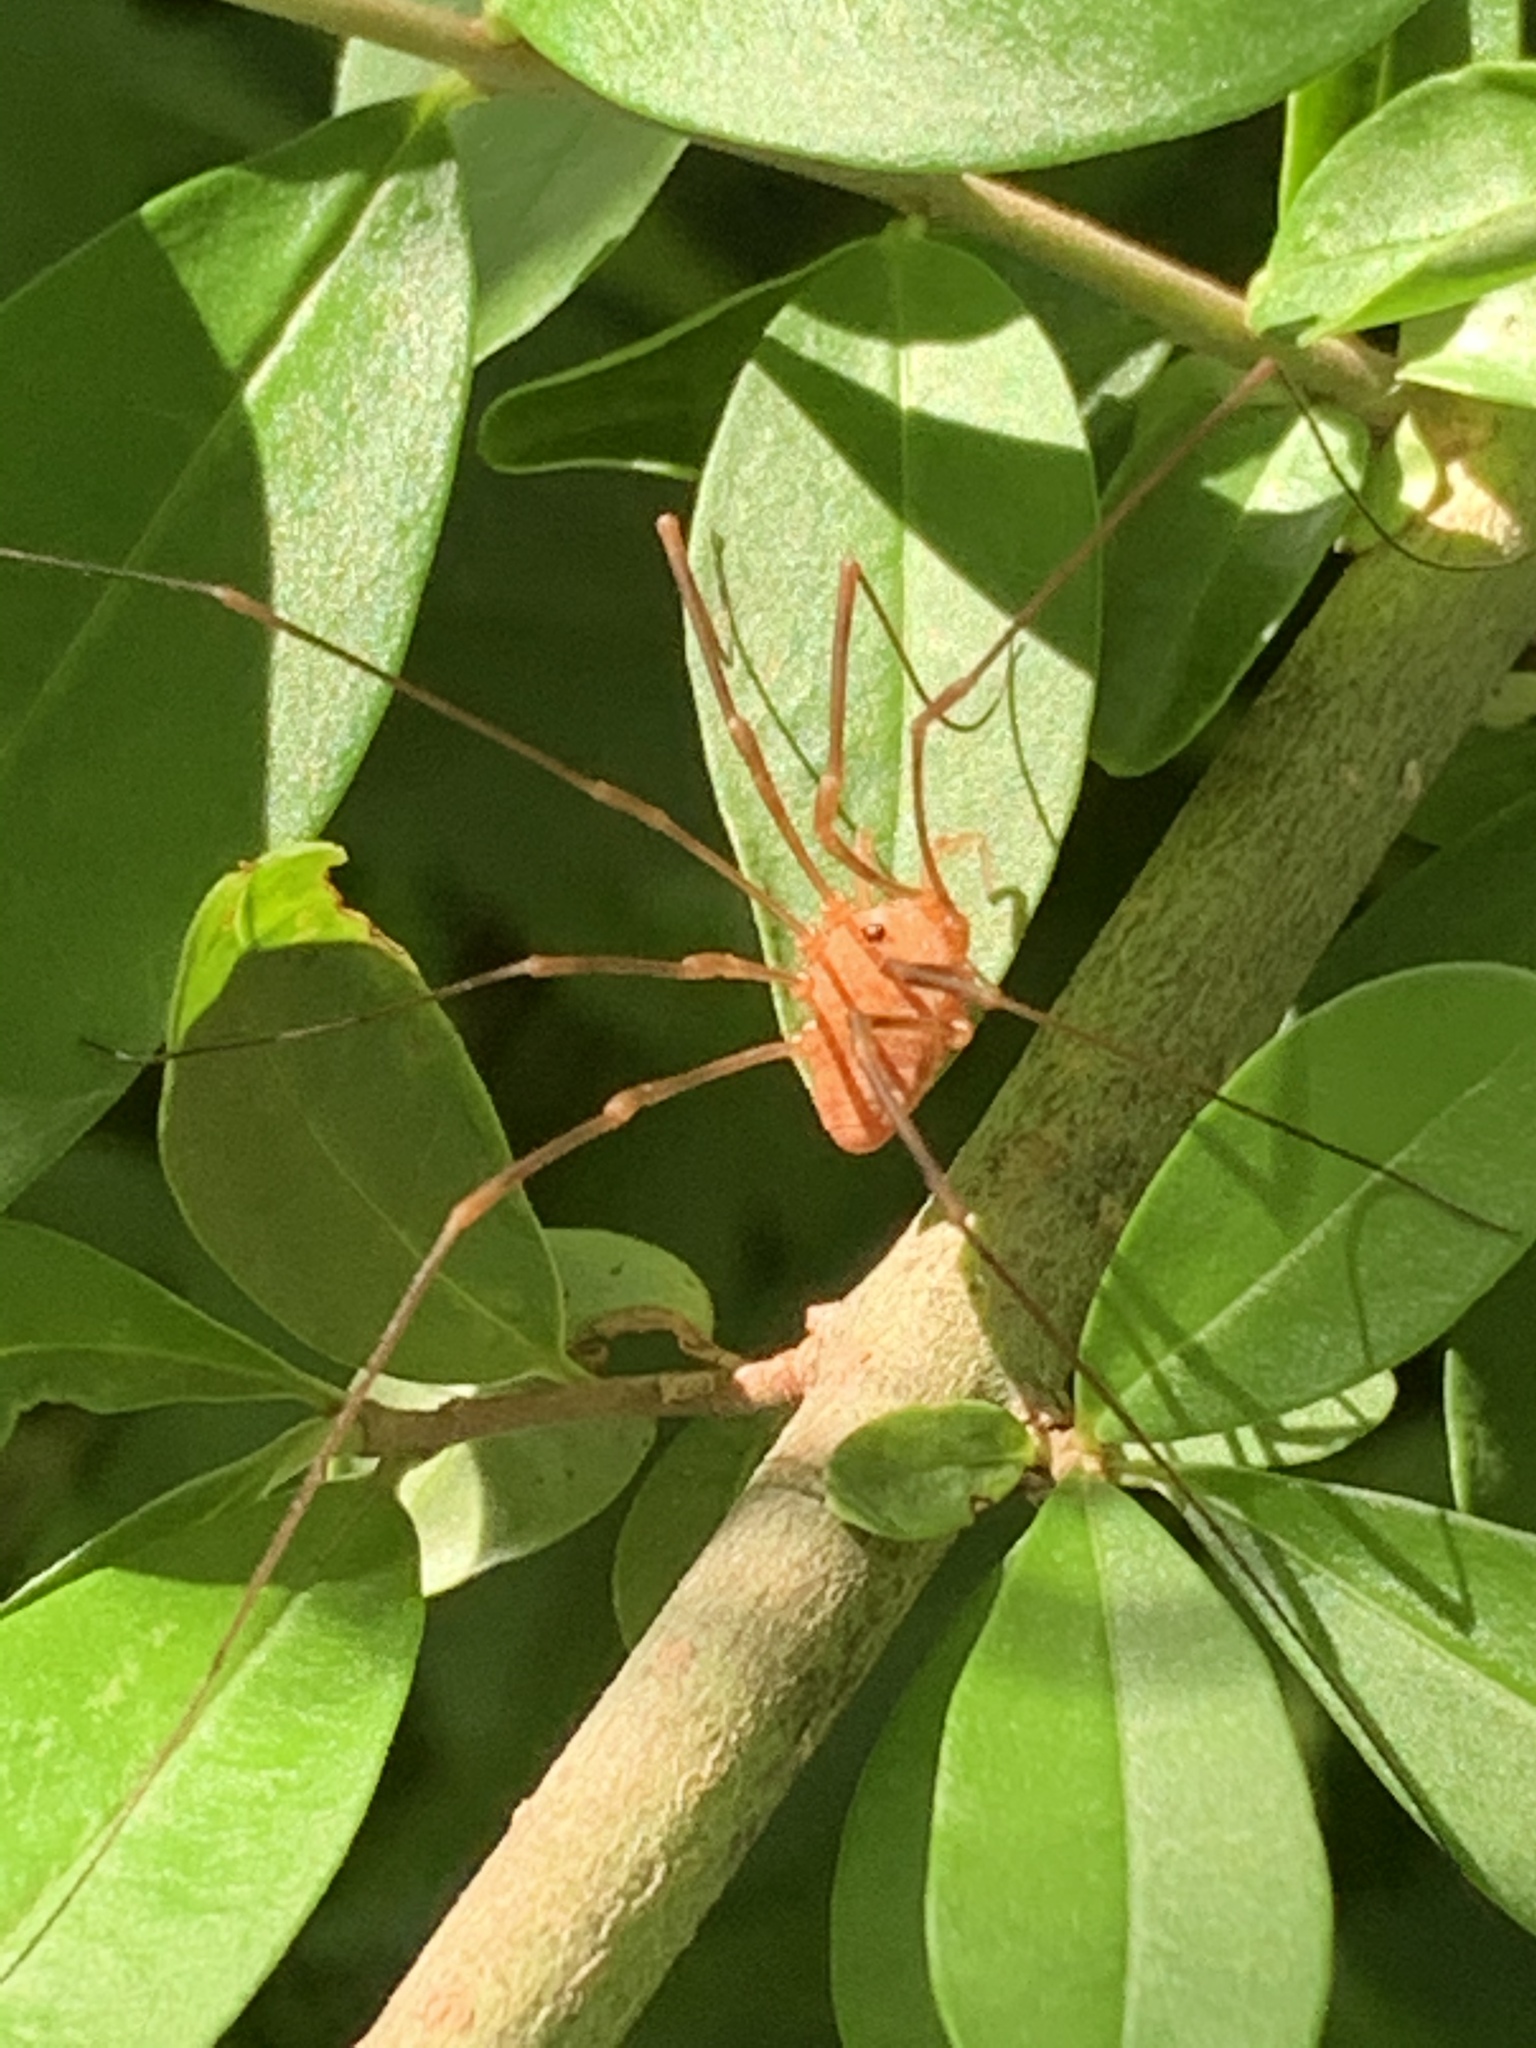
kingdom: Animalia
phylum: Arthropoda
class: Arachnida
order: Opiliones
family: Sclerosomatidae
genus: Leiobunum
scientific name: Leiobunum ventricosum
